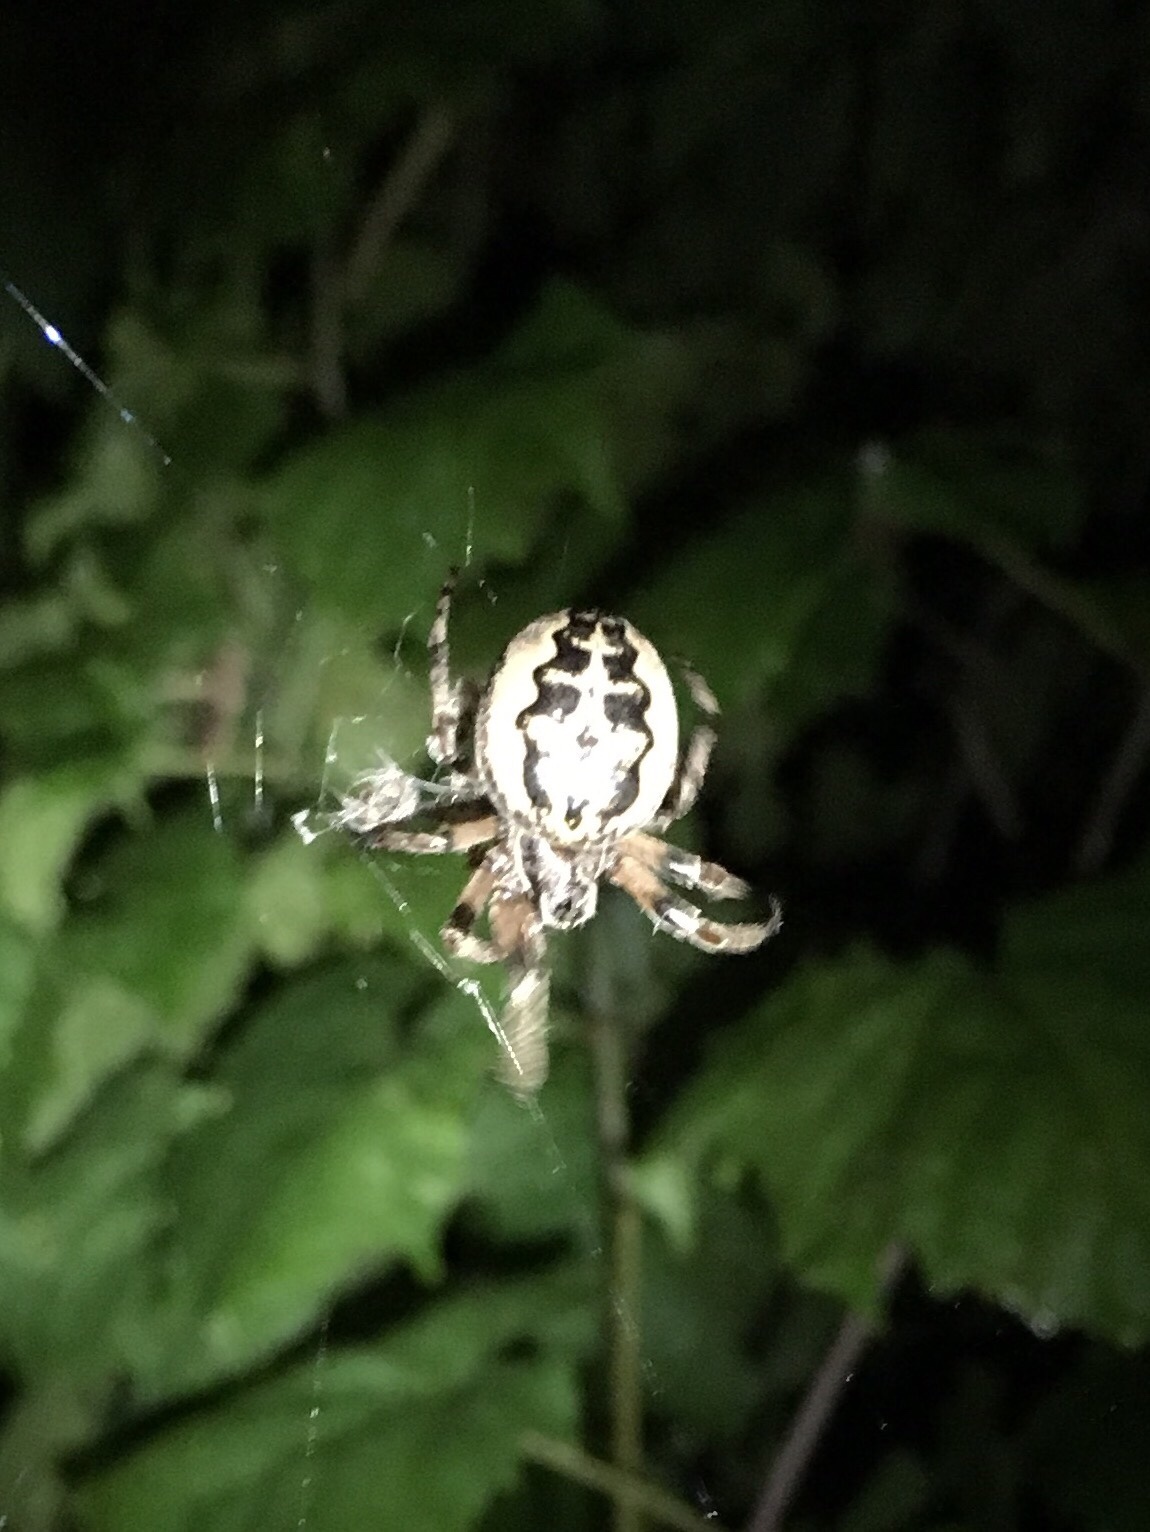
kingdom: Animalia
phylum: Arthropoda
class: Arachnida
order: Araneae
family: Araneidae
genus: Larinioides
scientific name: Larinioides cornutus
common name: Furrow orbweaver
